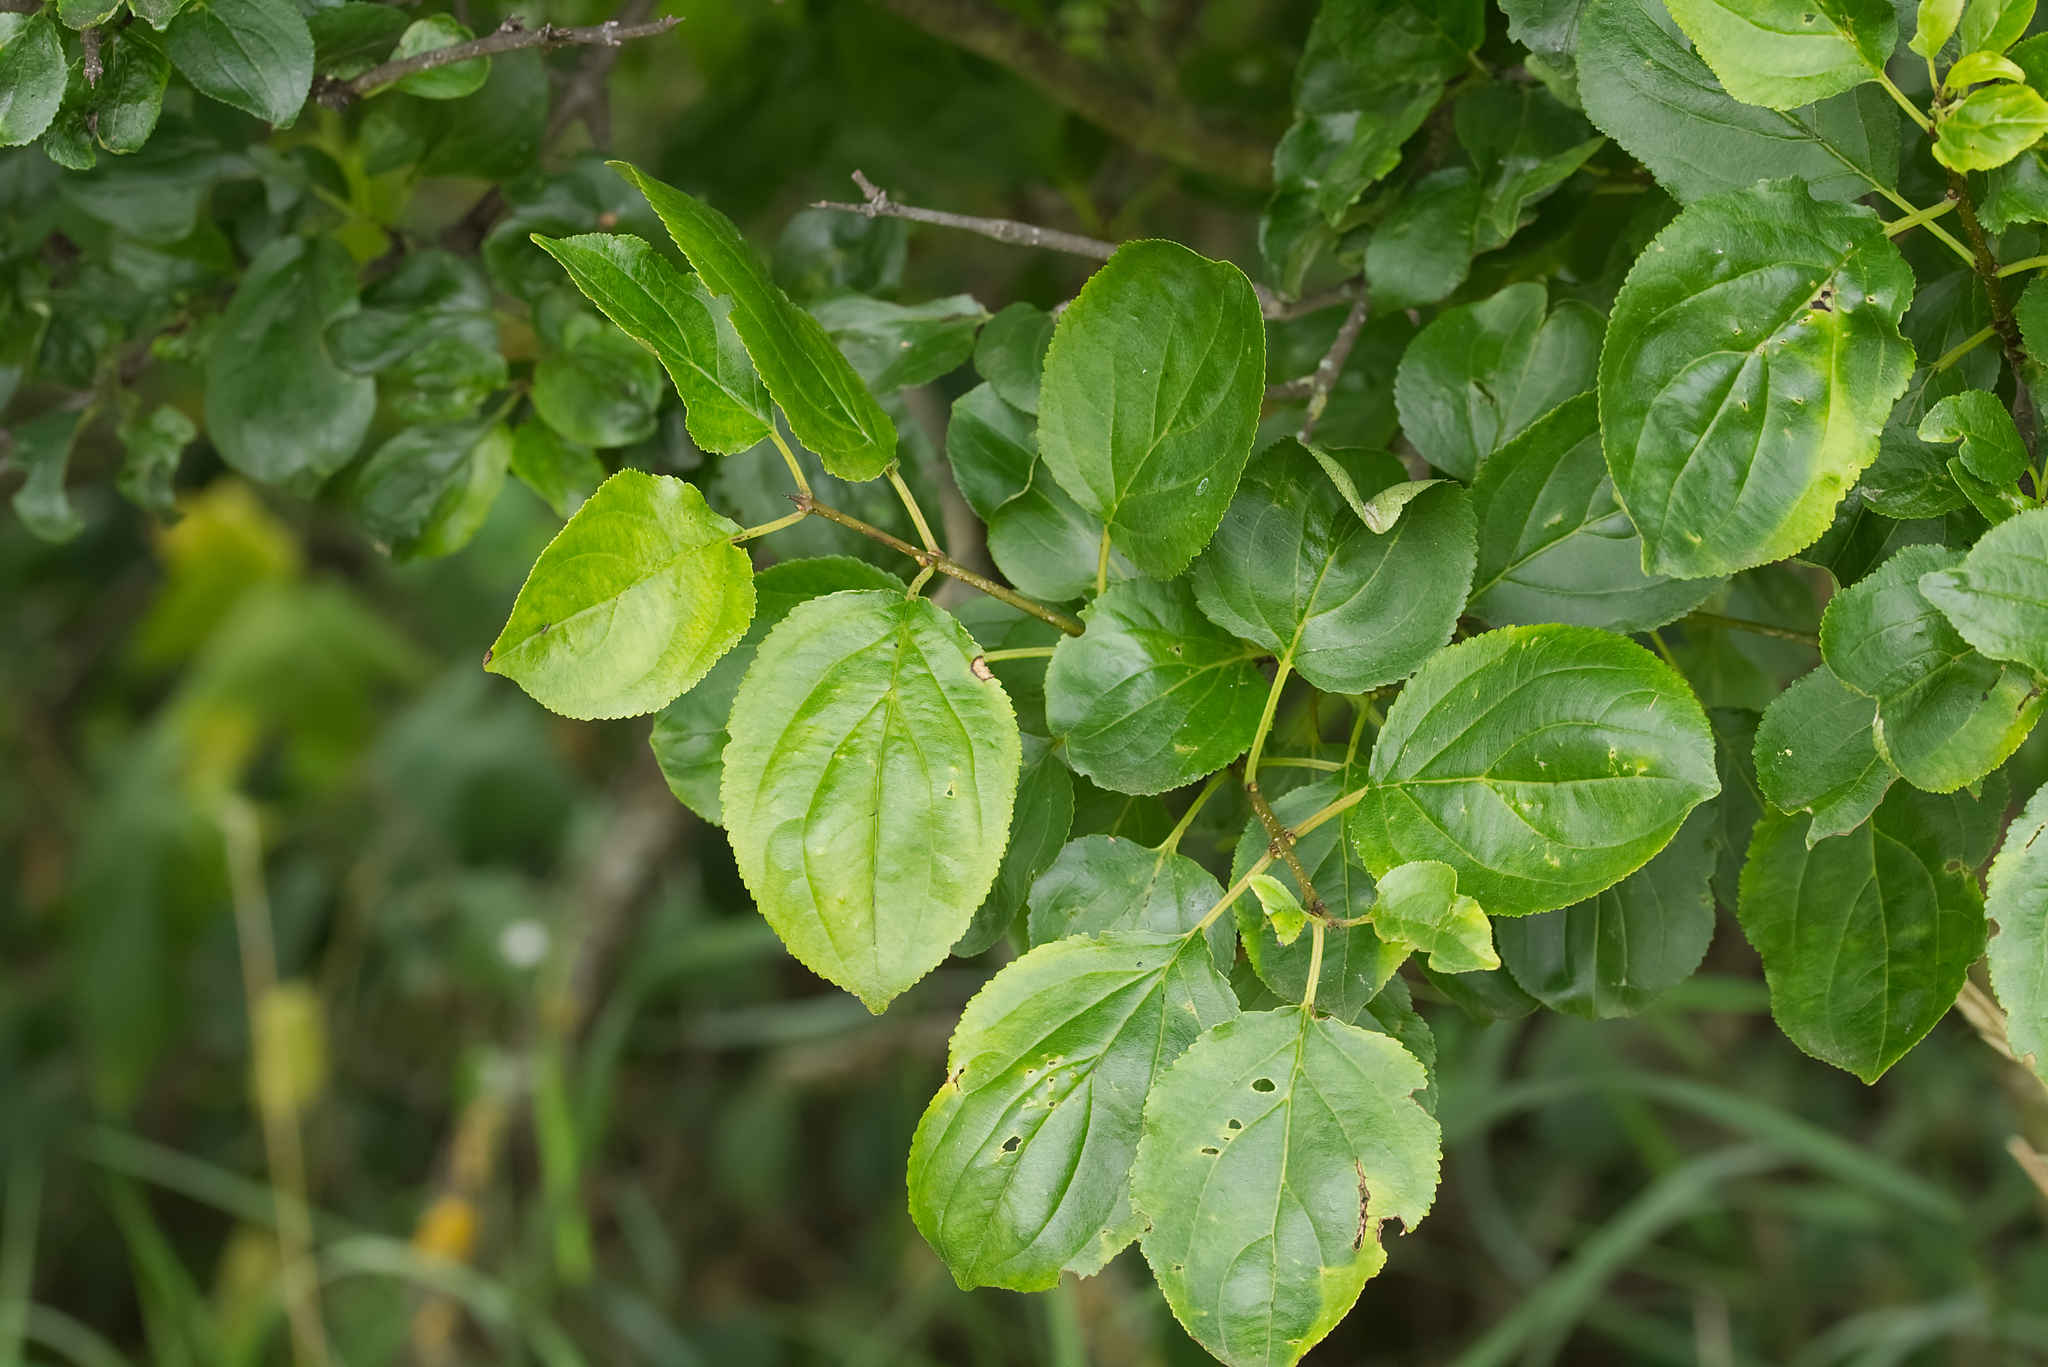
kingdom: Plantae
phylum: Tracheophyta
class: Magnoliopsida
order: Rosales
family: Rhamnaceae
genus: Rhamnus
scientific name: Rhamnus cathartica
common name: Common buckthorn
